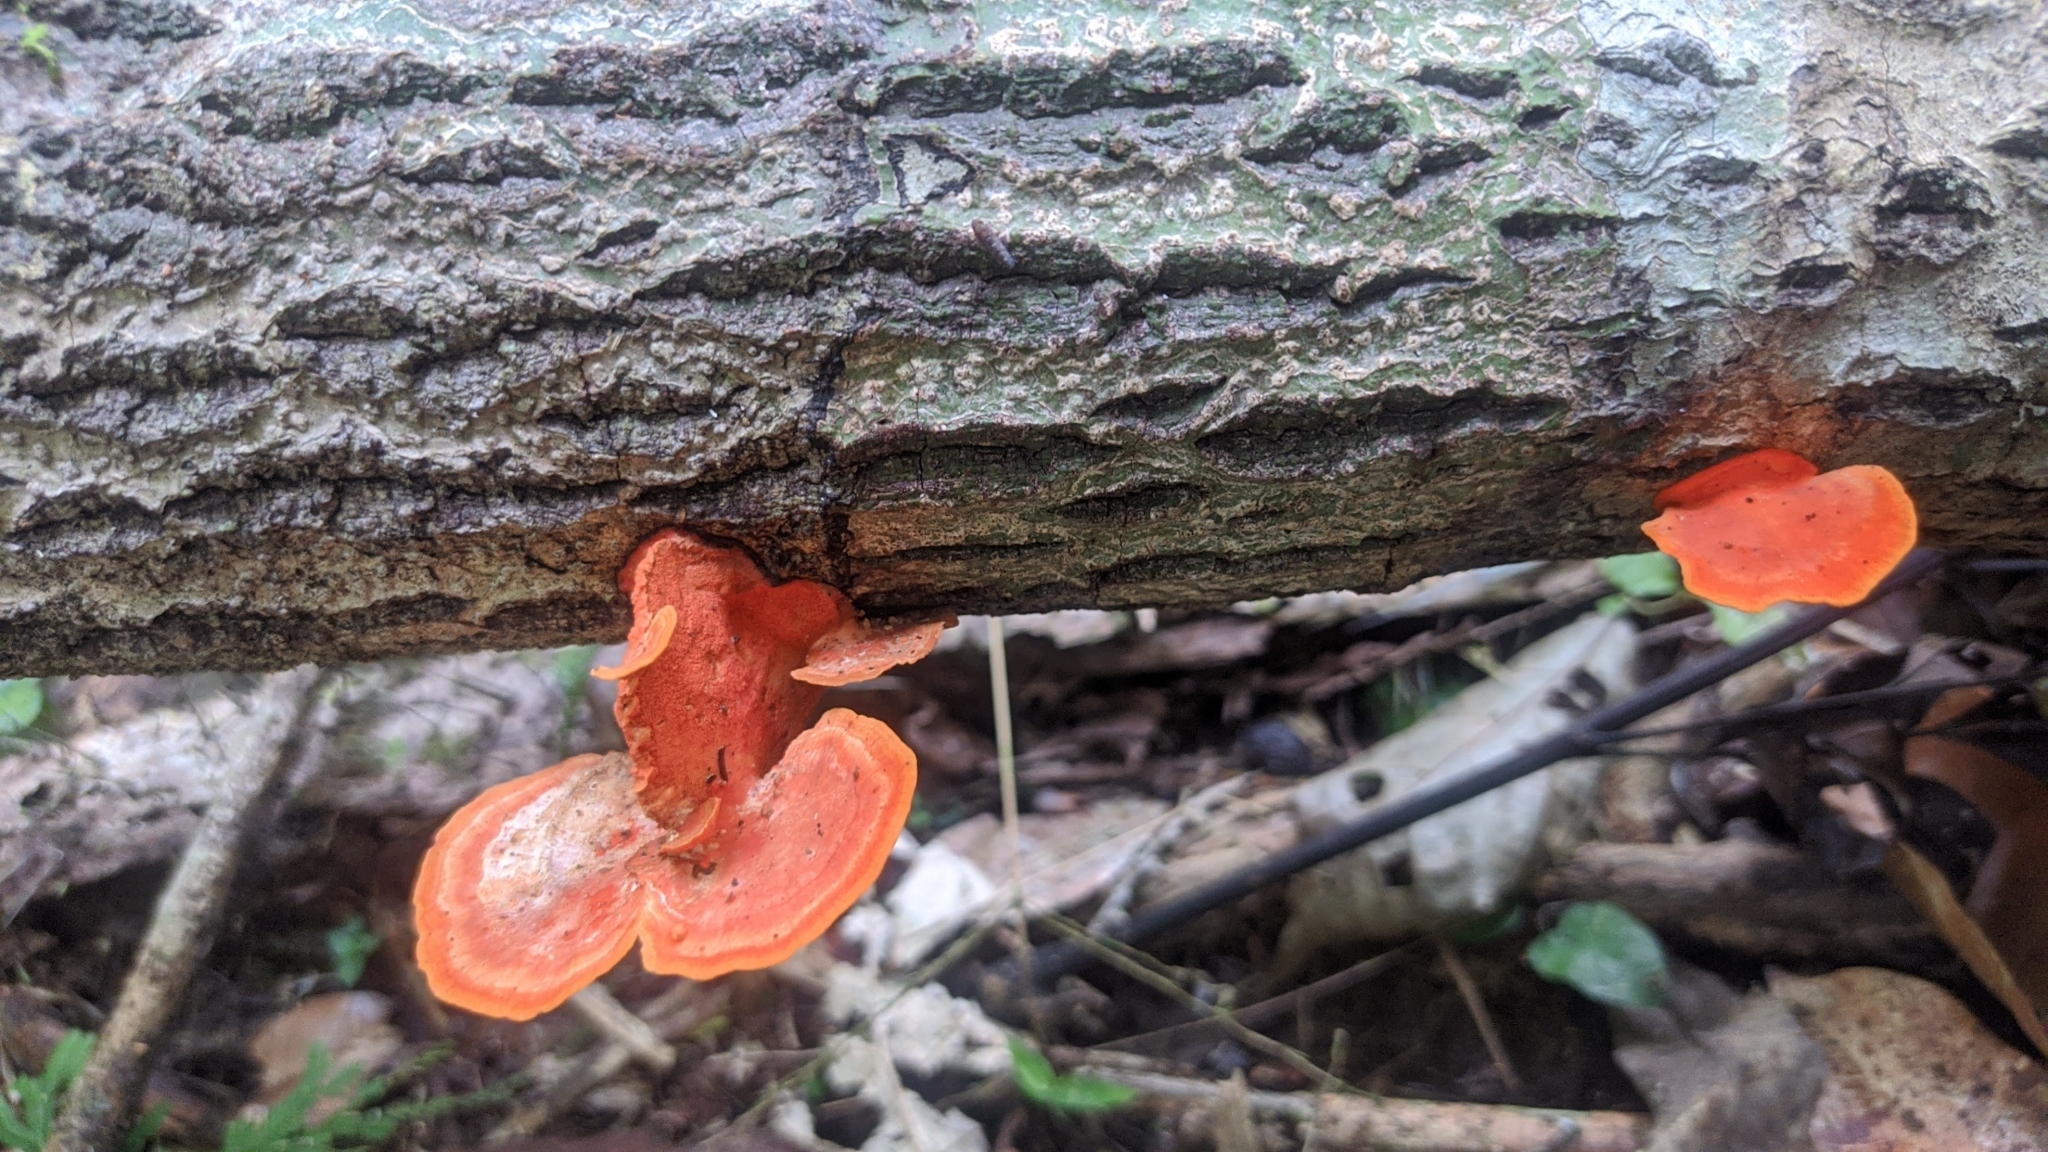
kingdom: Fungi
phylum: Basidiomycota
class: Agaricomycetes
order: Polyporales
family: Polyporaceae
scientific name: Polyporaceae
